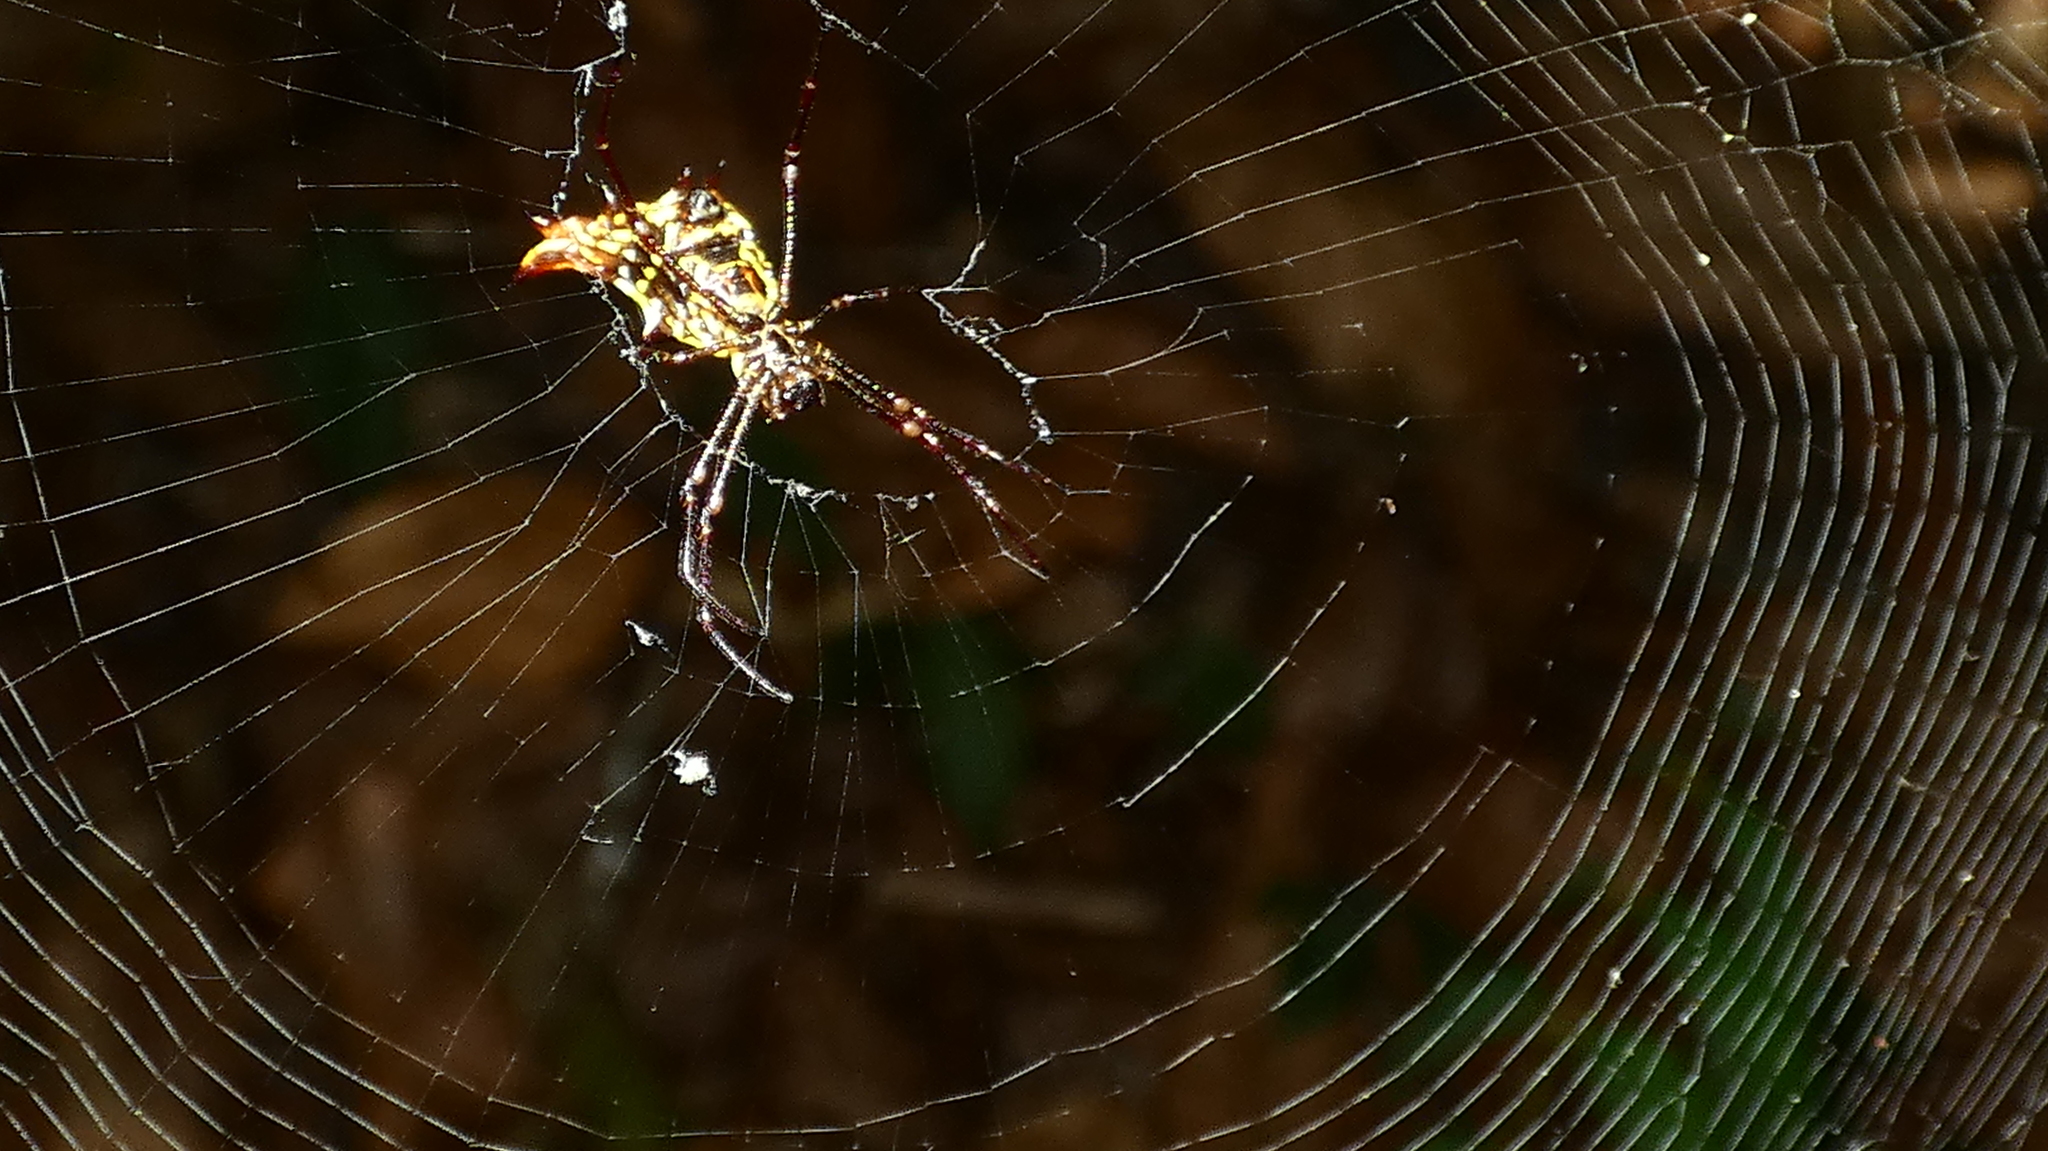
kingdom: Animalia
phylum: Arthropoda
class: Arachnida
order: Araneae
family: Araneidae
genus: Micrathena
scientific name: Micrathena fissispina
